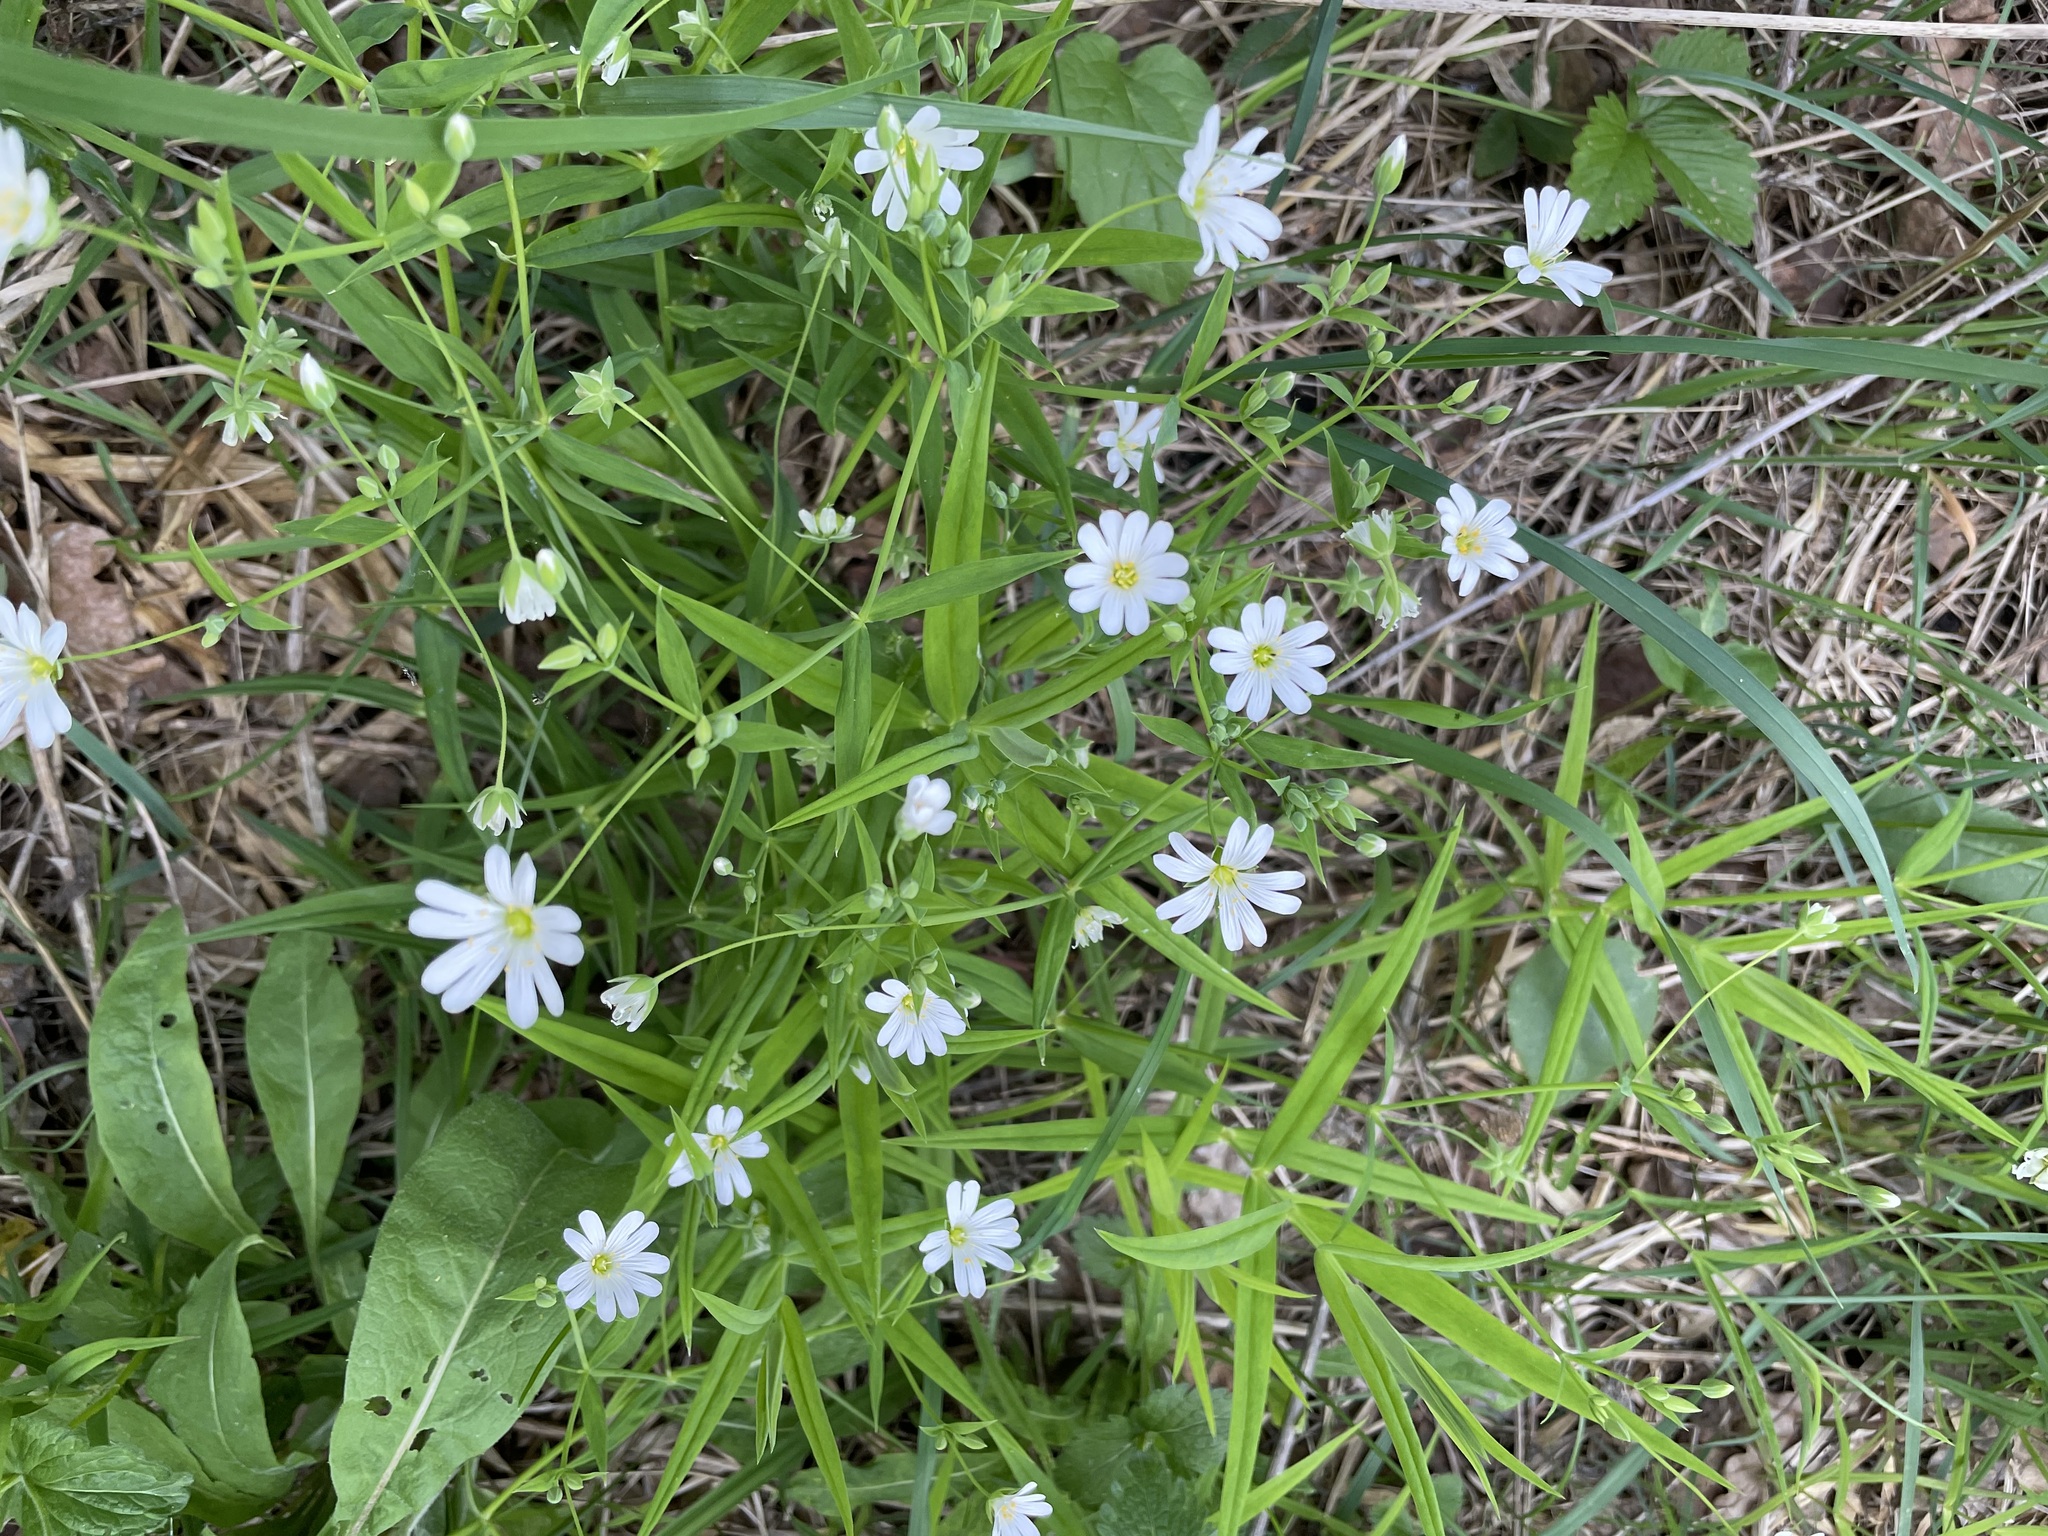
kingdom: Plantae
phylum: Tracheophyta
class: Magnoliopsida
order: Caryophyllales
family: Caryophyllaceae
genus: Rabelera
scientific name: Rabelera holostea
